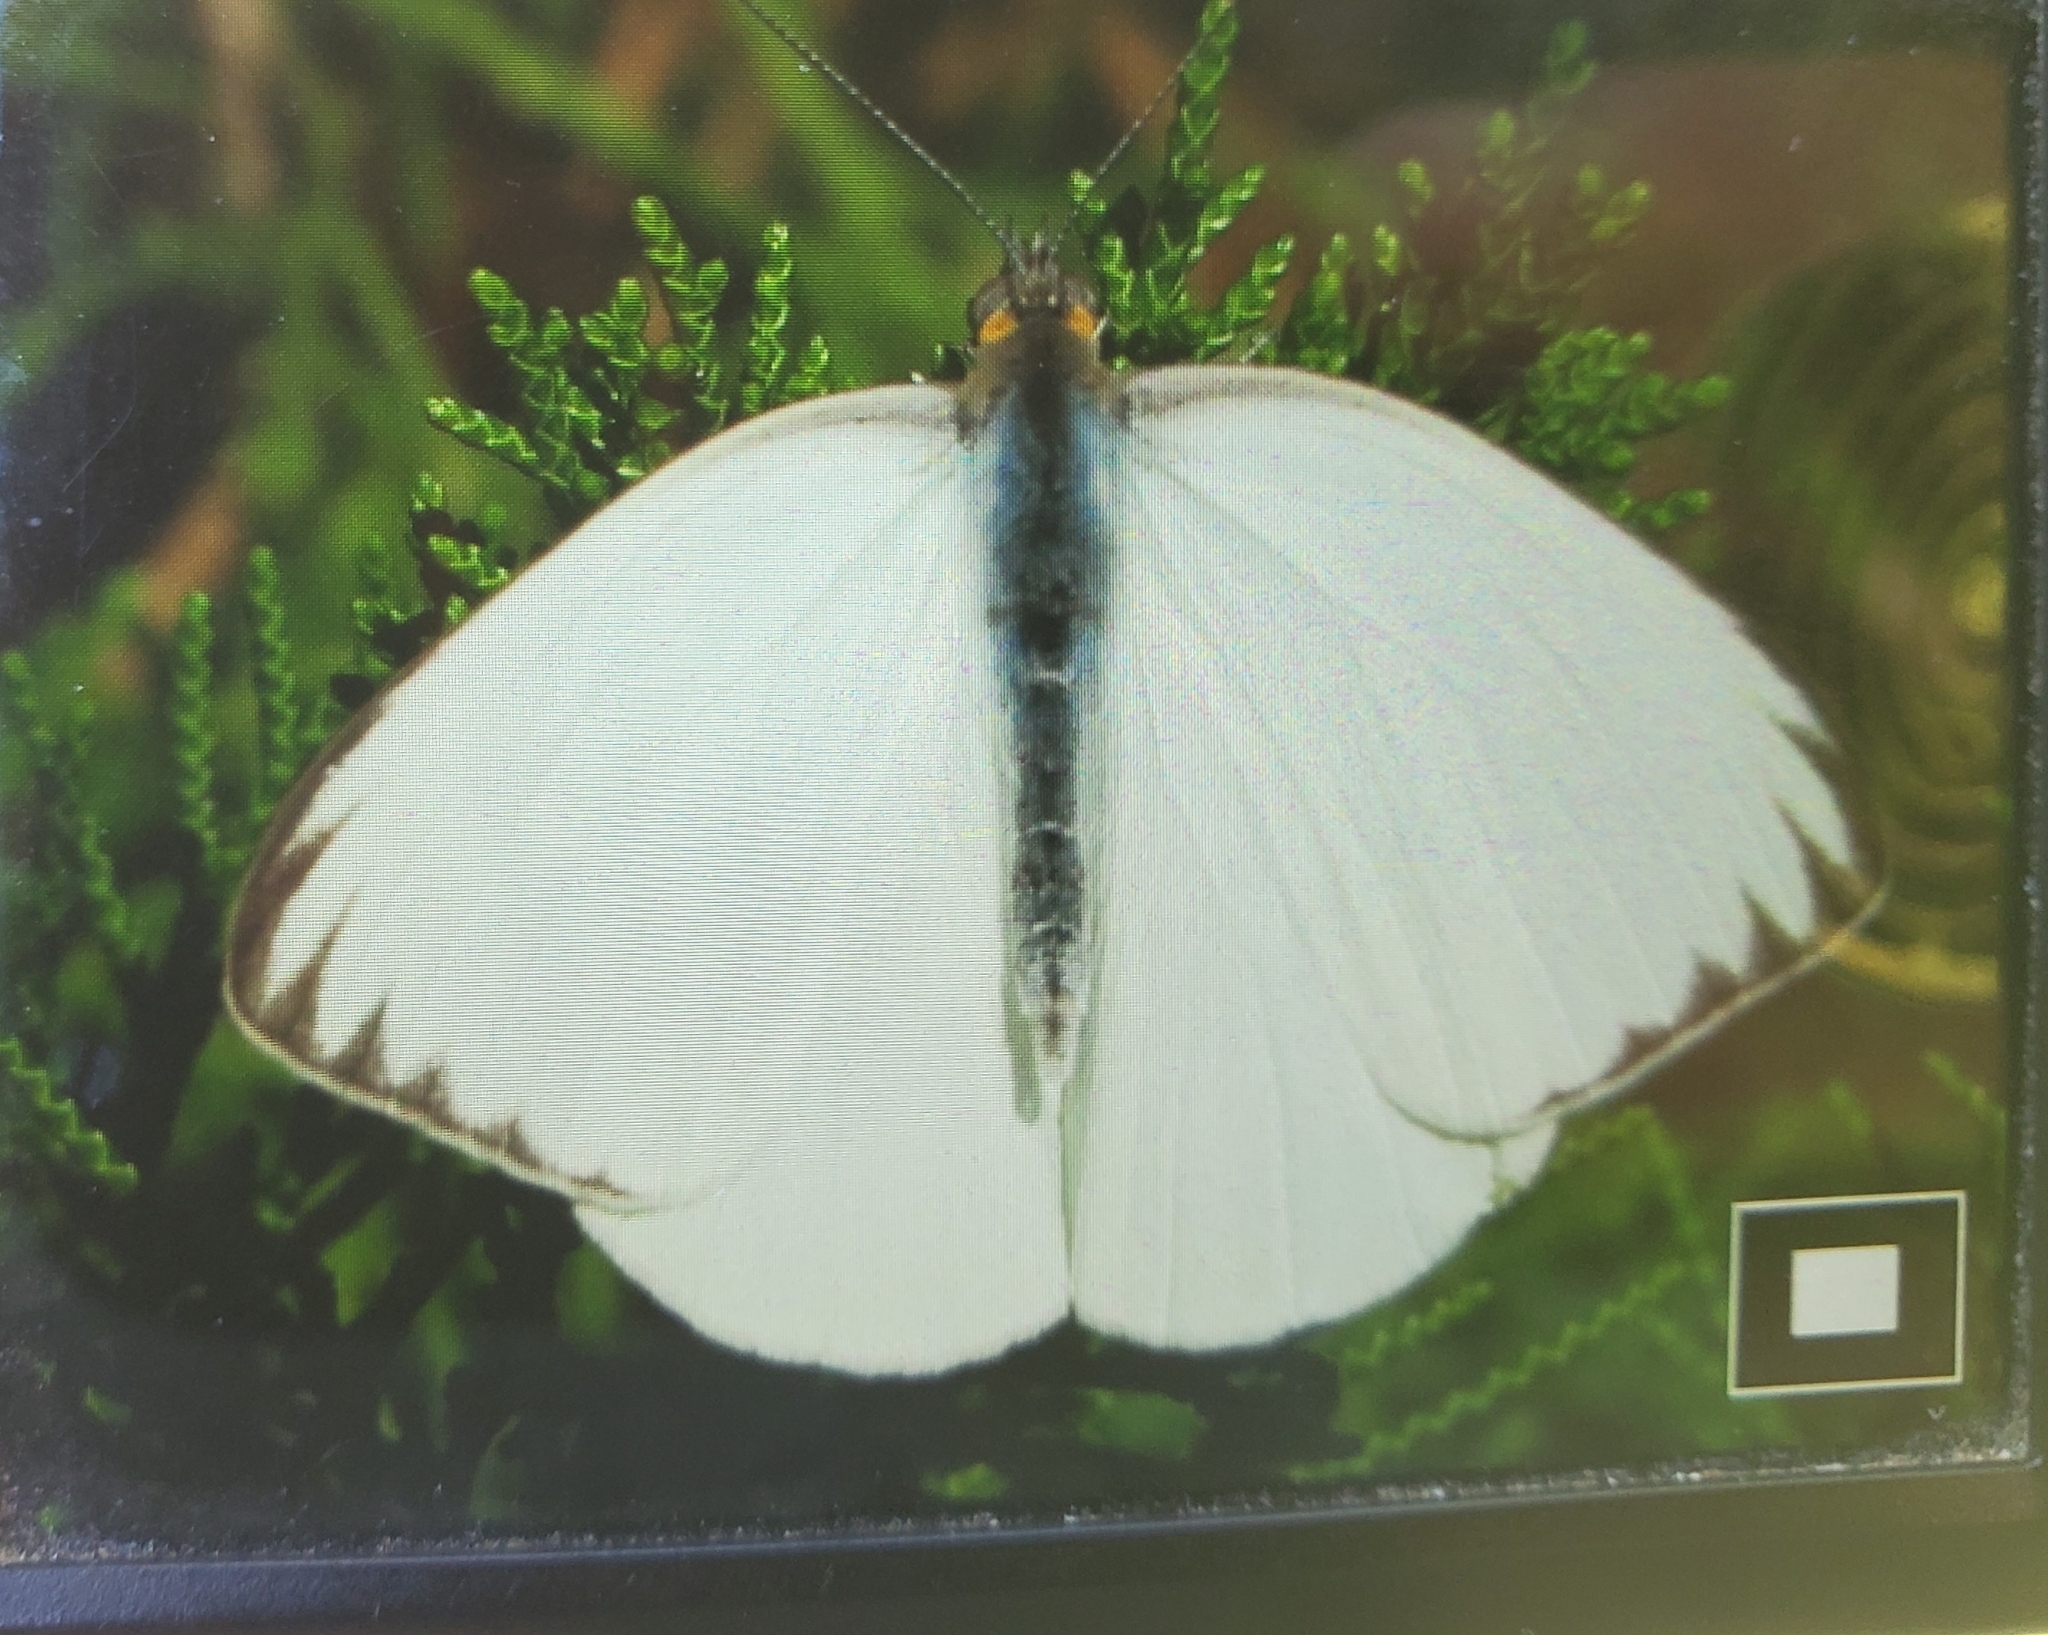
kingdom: Animalia
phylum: Arthropoda
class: Insecta
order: Lepidoptera
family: Pieridae
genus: Ascia
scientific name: Ascia monuste
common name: Great southern white
